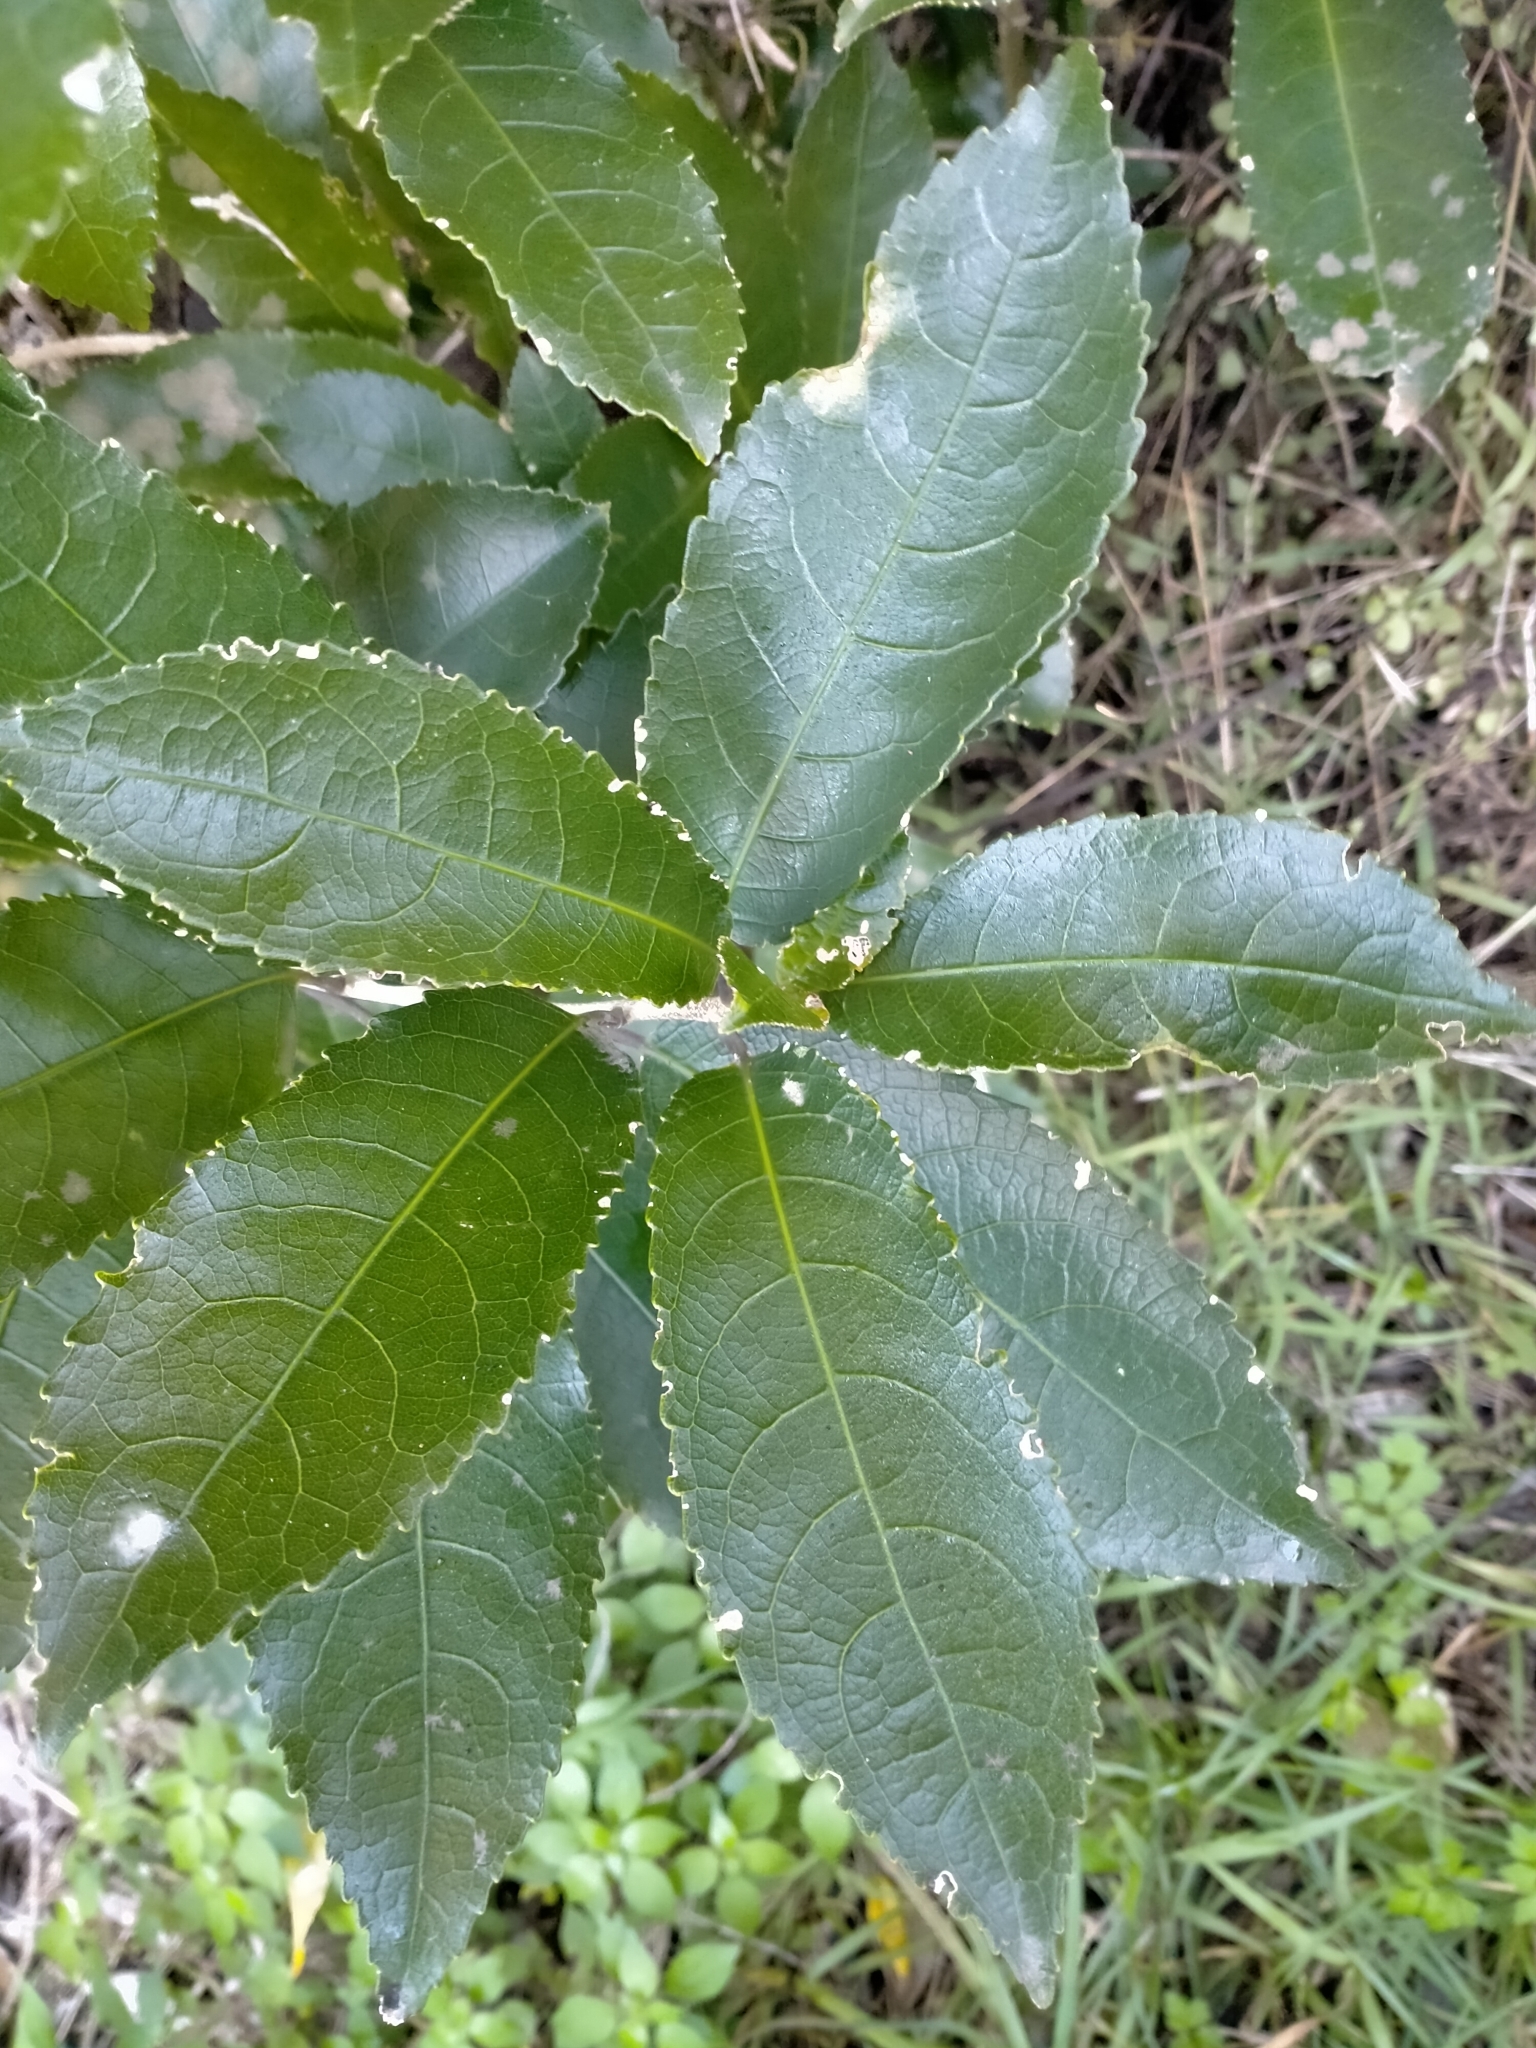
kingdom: Plantae
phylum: Tracheophyta
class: Magnoliopsida
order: Malpighiales
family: Violaceae
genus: Melicytus
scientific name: Melicytus ramiflorus
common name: Mahoe
